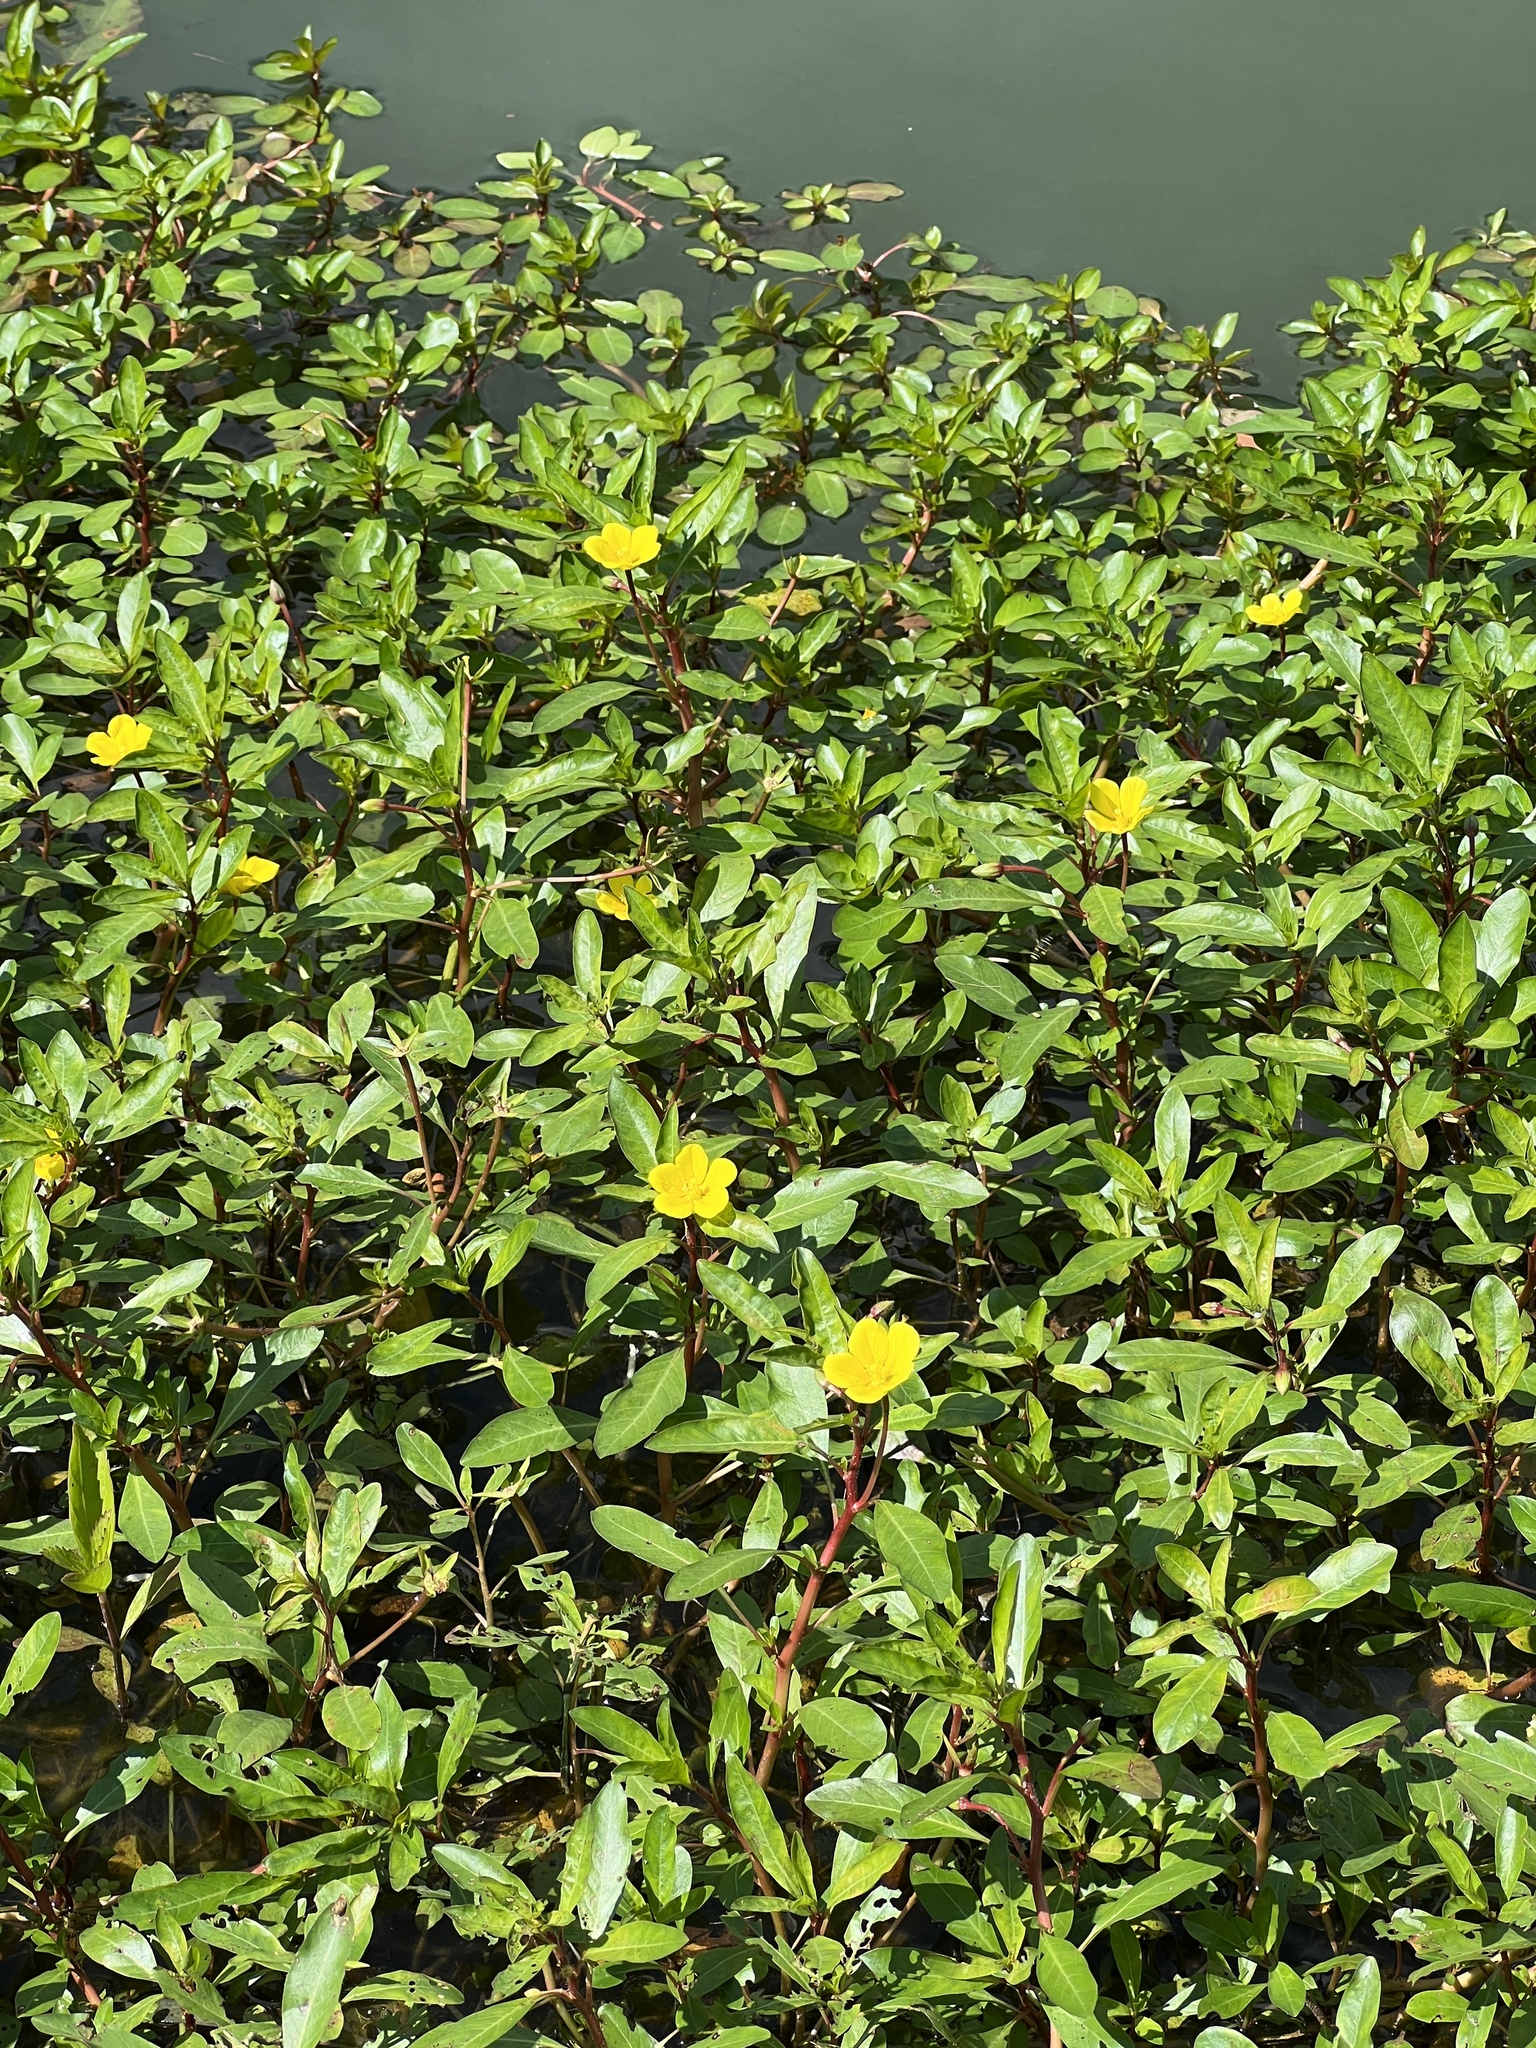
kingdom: Plantae
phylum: Tracheophyta
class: Magnoliopsida
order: Myrtales
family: Onagraceae
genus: Ludwigia
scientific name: Ludwigia peploides
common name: Floating primrose-willow
